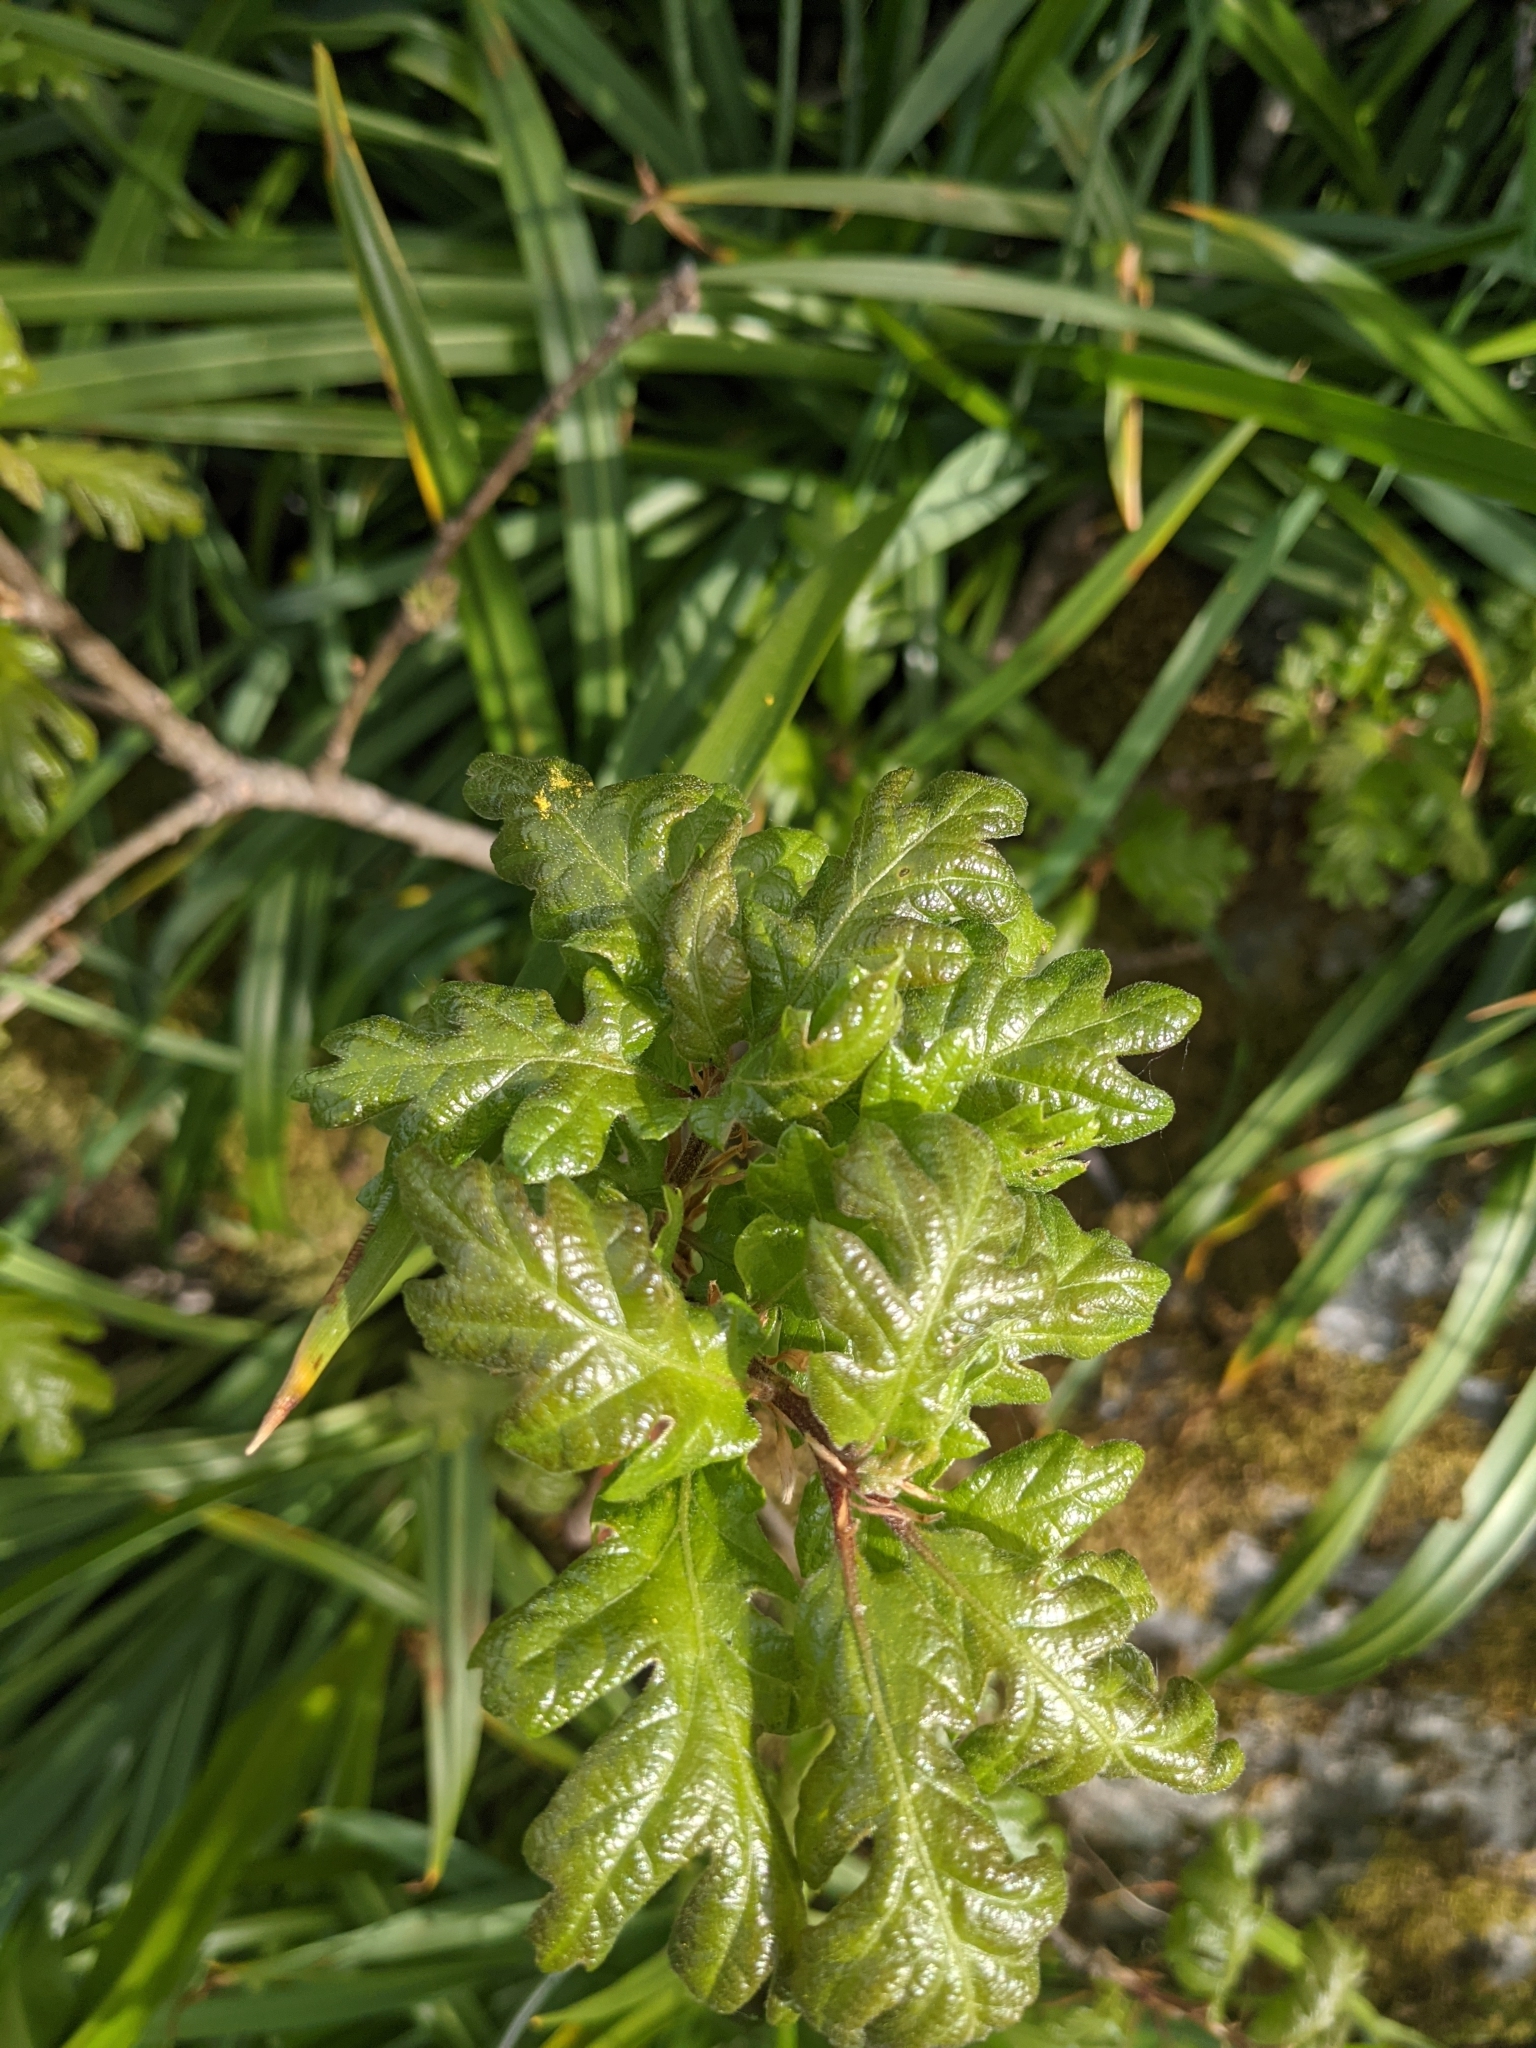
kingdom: Plantae
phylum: Tracheophyta
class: Magnoliopsida
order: Fagales
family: Fagaceae
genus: Quercus
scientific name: Quercus garryana
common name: Garry oak
